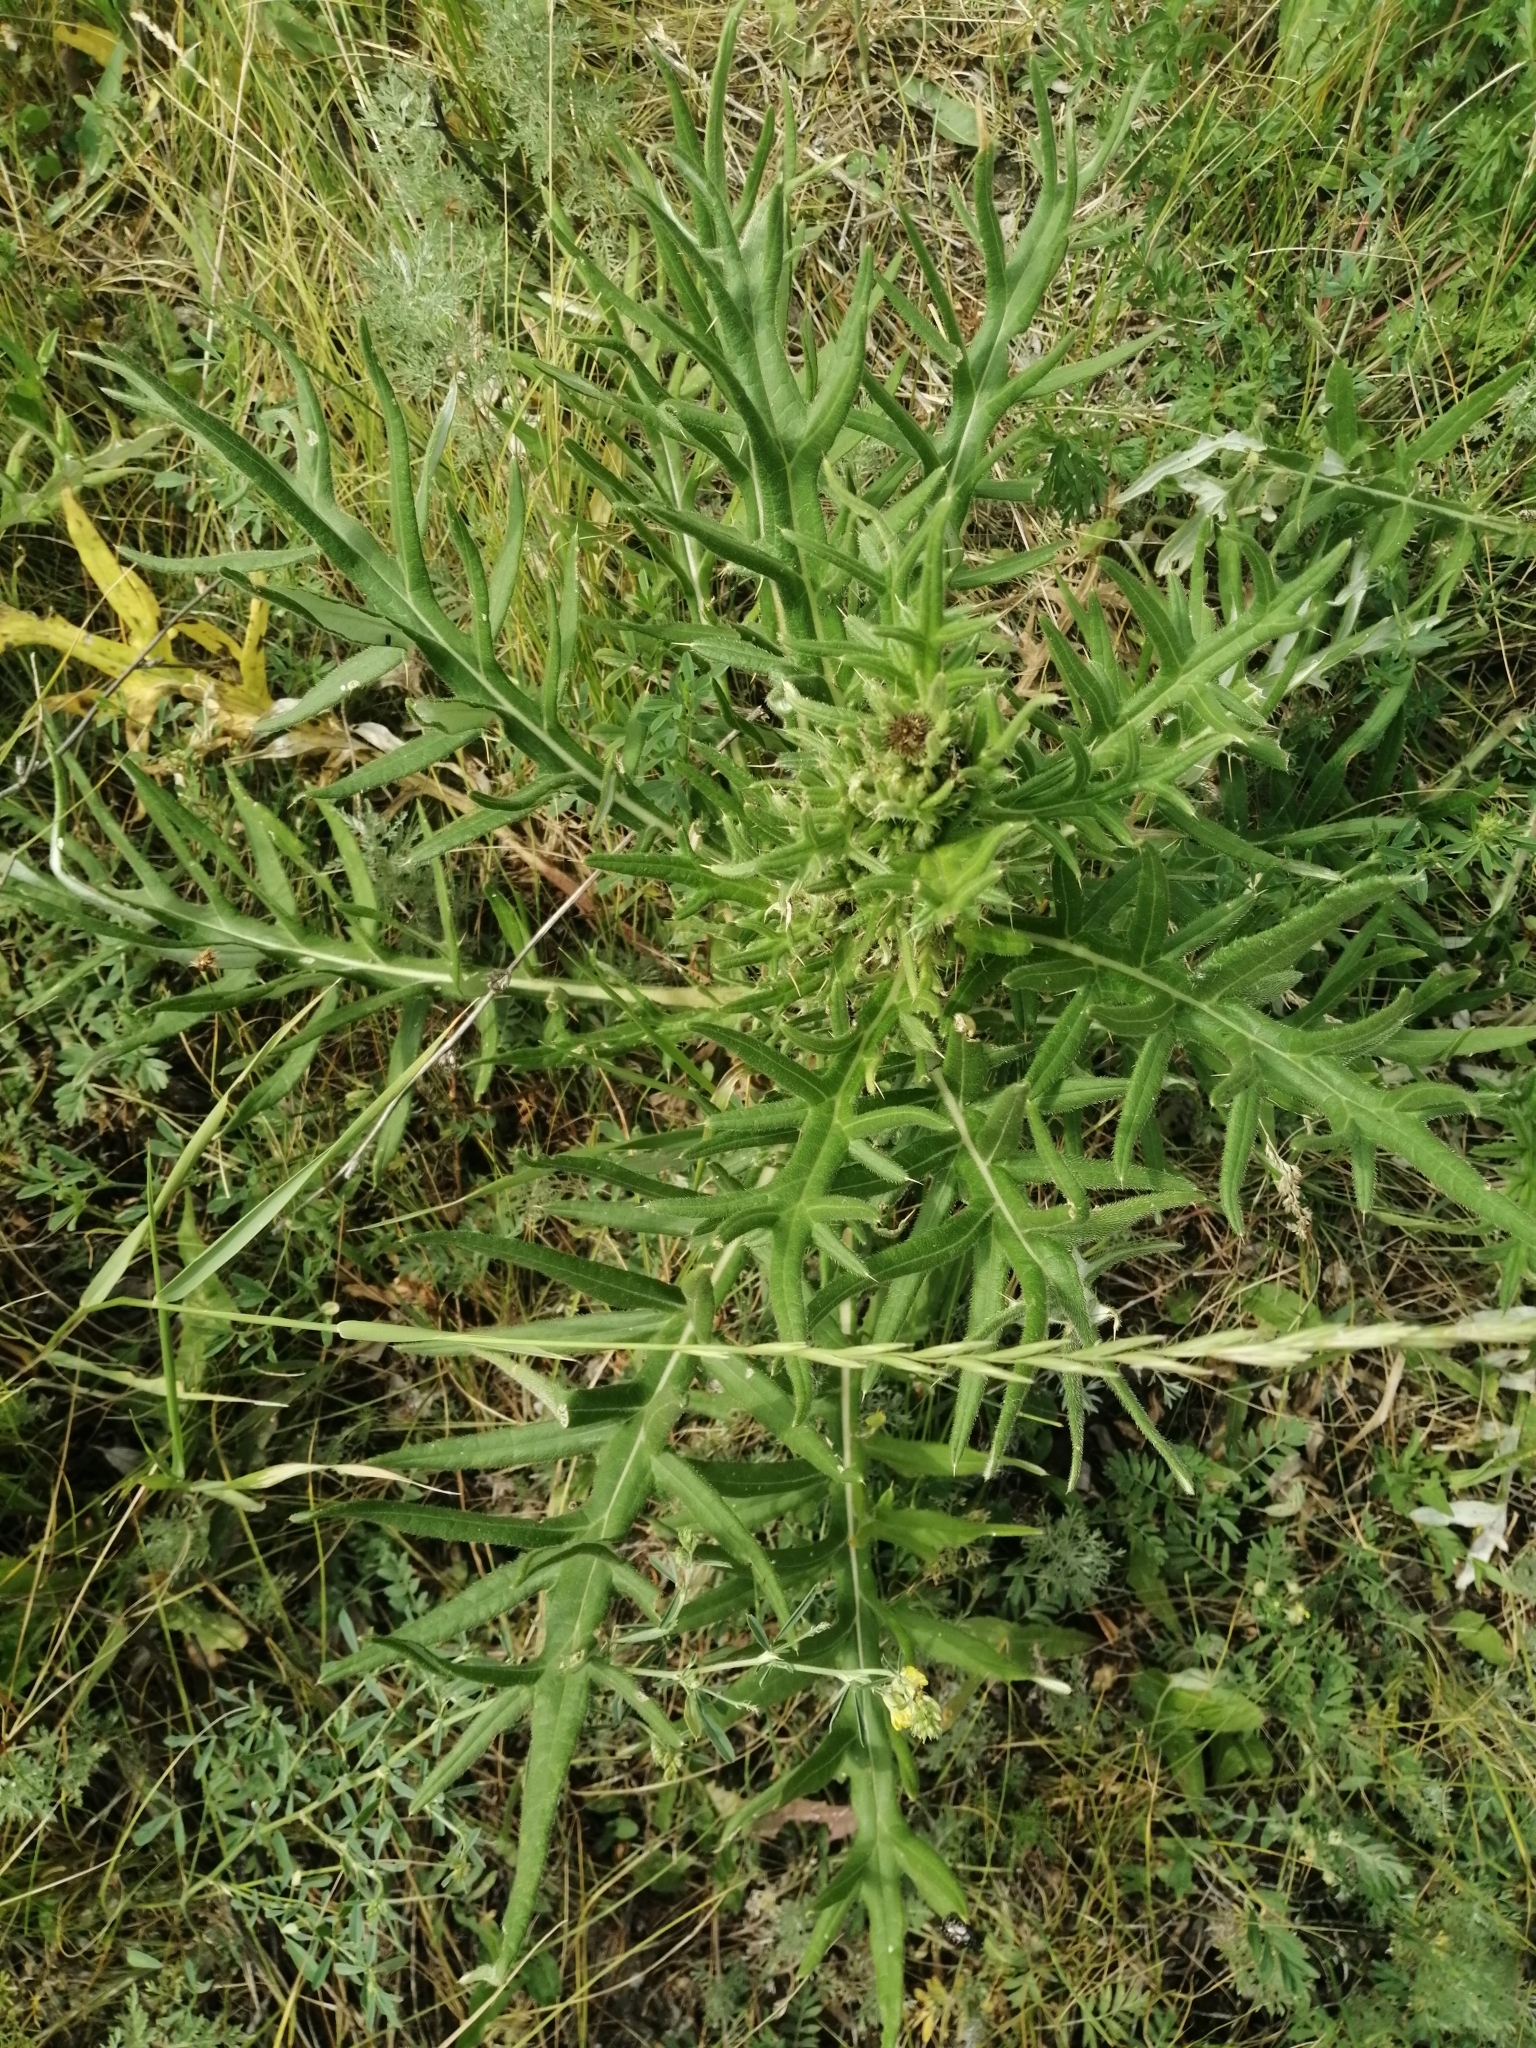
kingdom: Plantae
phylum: Tracheophyta
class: Magnoliopsida
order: Asterales
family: Asteraceae
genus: Cirsium
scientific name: Cirsium serrulatum
